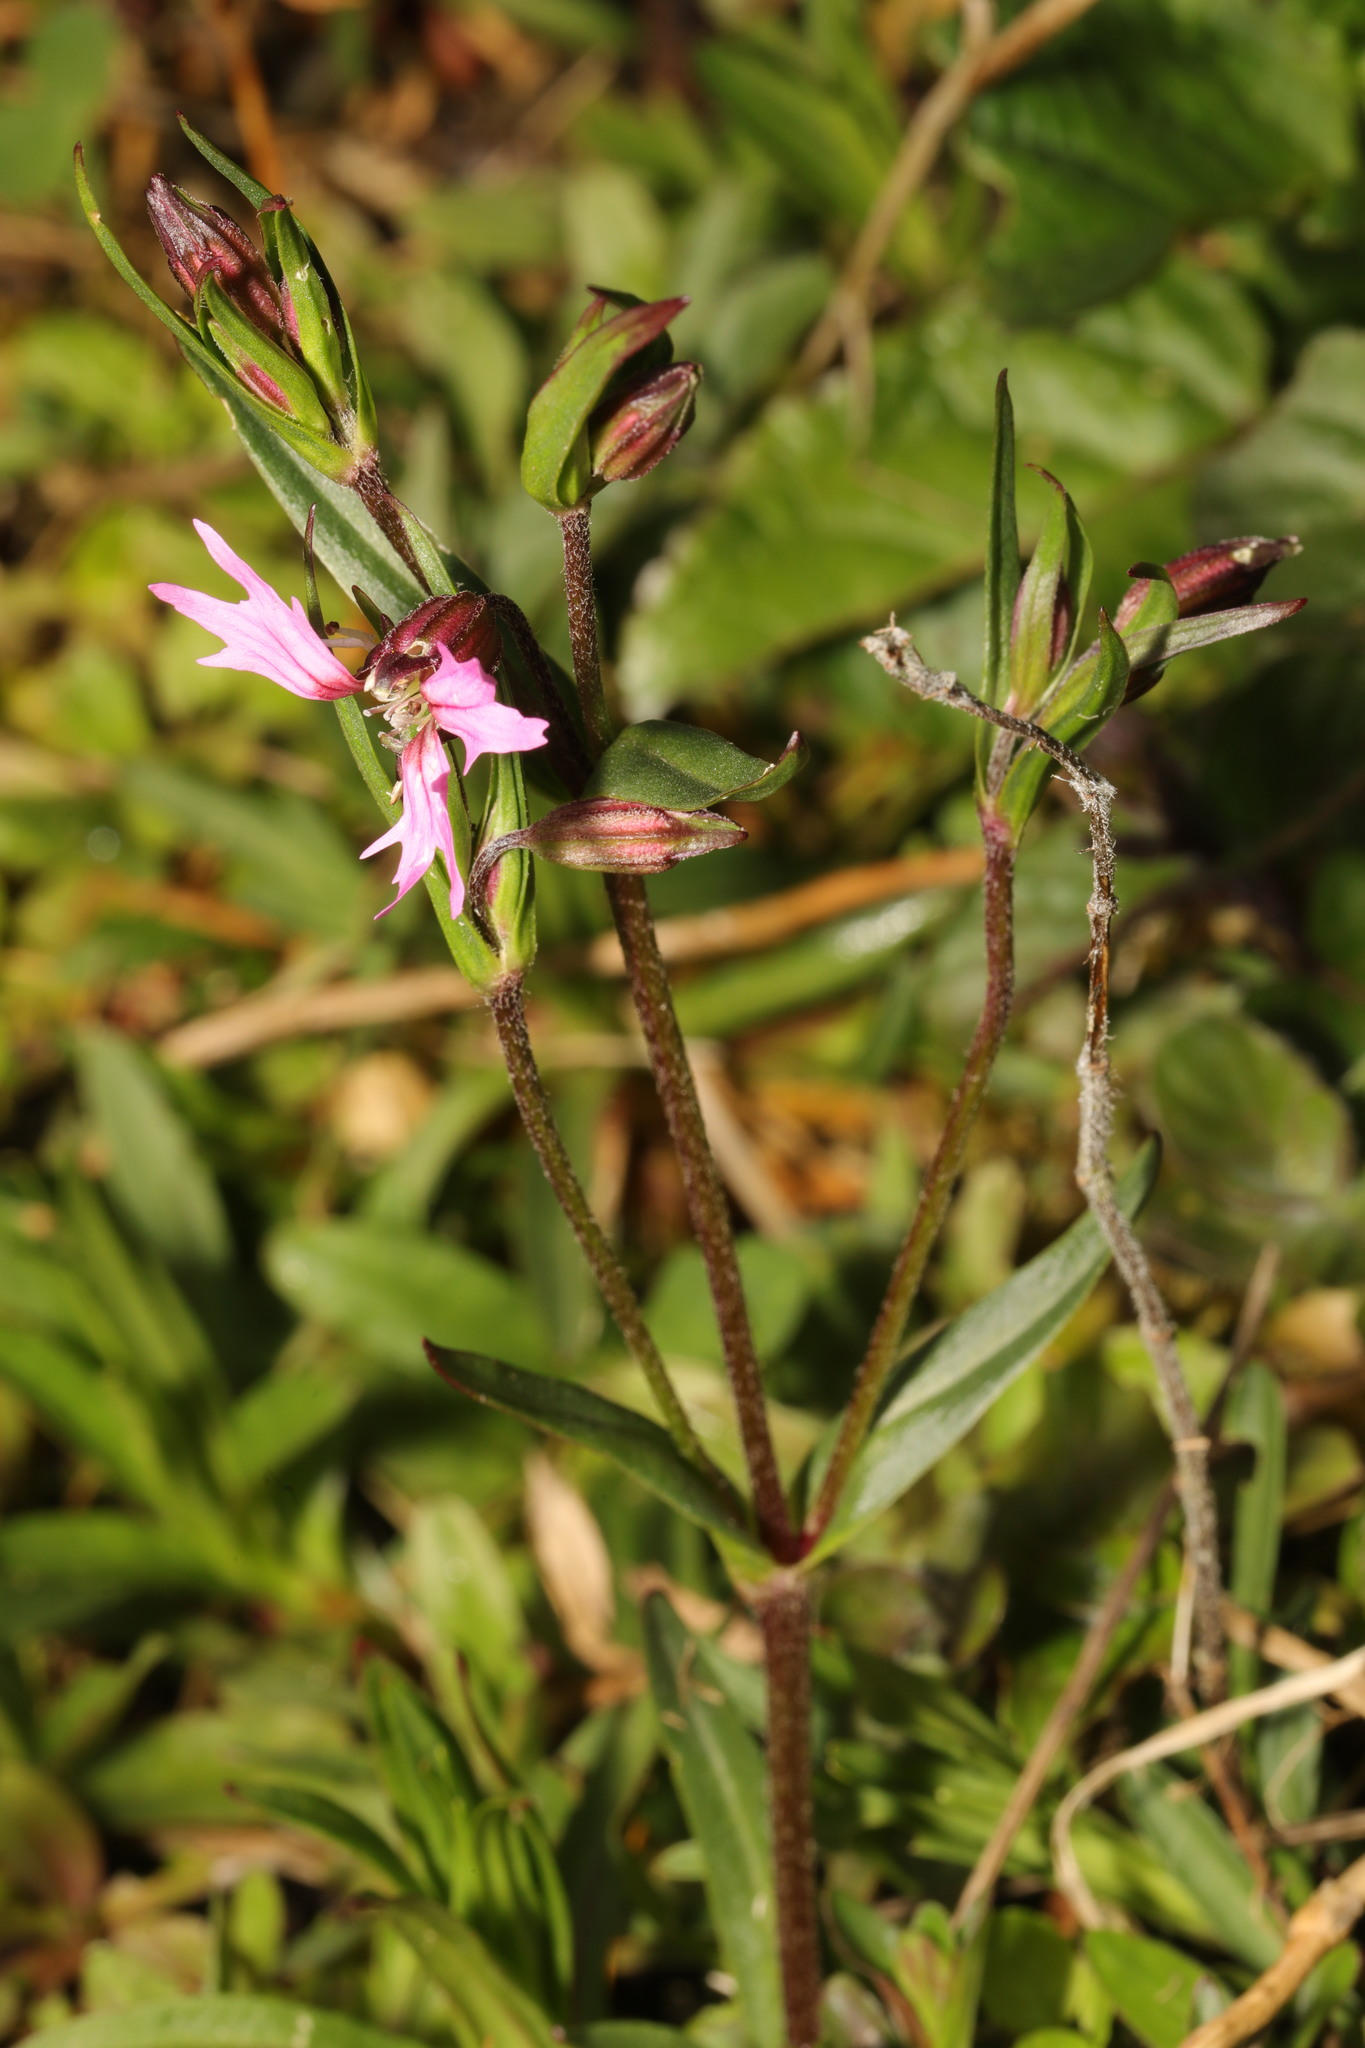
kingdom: Plantae
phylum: Tracheophyta
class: Magnoliopsida
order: Caryophyllales
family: Caryophyllaceae
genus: Silene
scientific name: Silene flos-cuculi
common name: Ragged-robin
